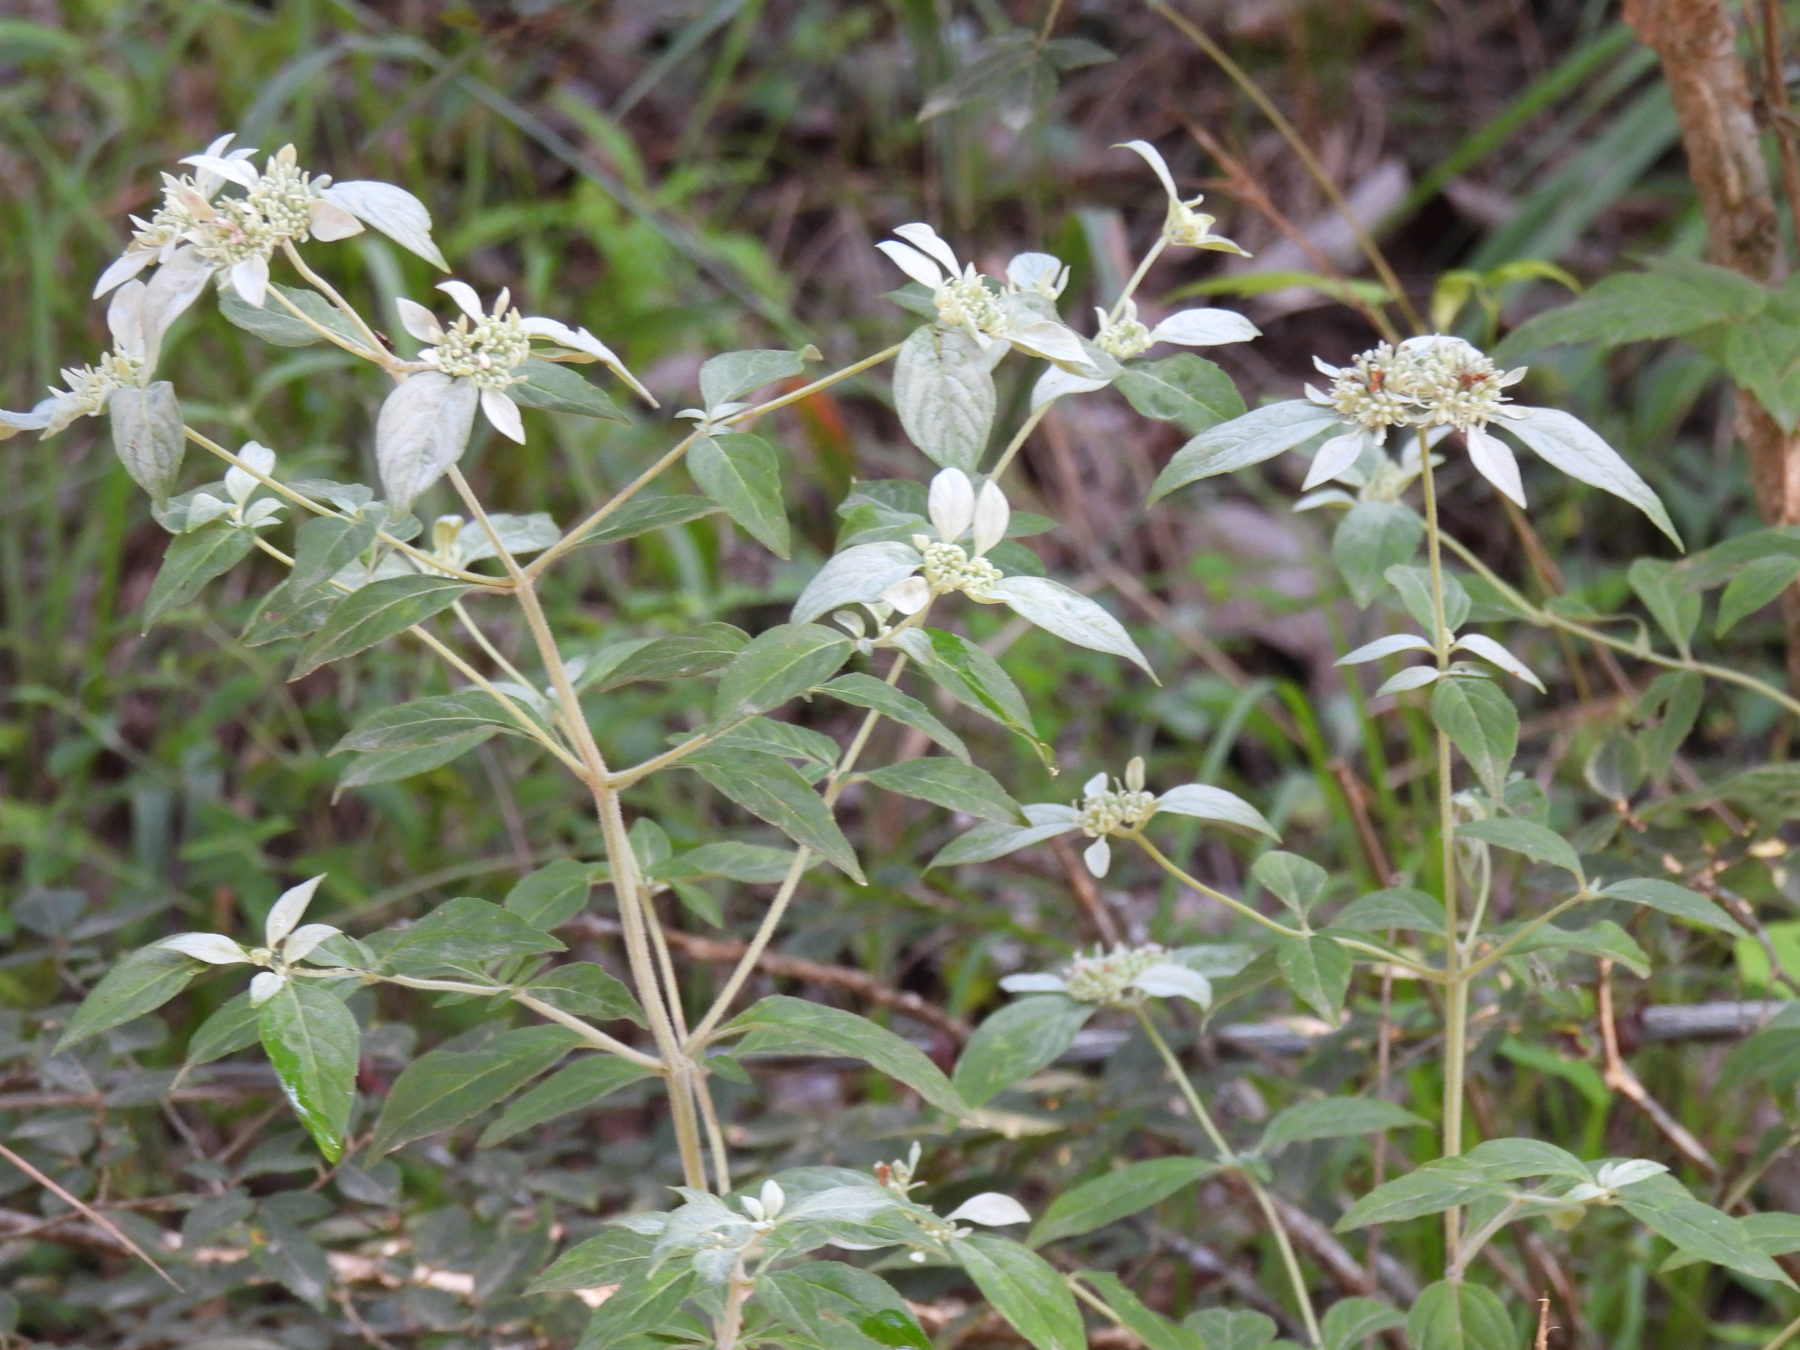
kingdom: Plantae
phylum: Tracheophyta
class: Magnoliopsida
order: Lamiales
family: Lamiaceae
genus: Pycnanthemum
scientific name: Pycnanthemum albescens
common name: White-leaf mountain-mint
